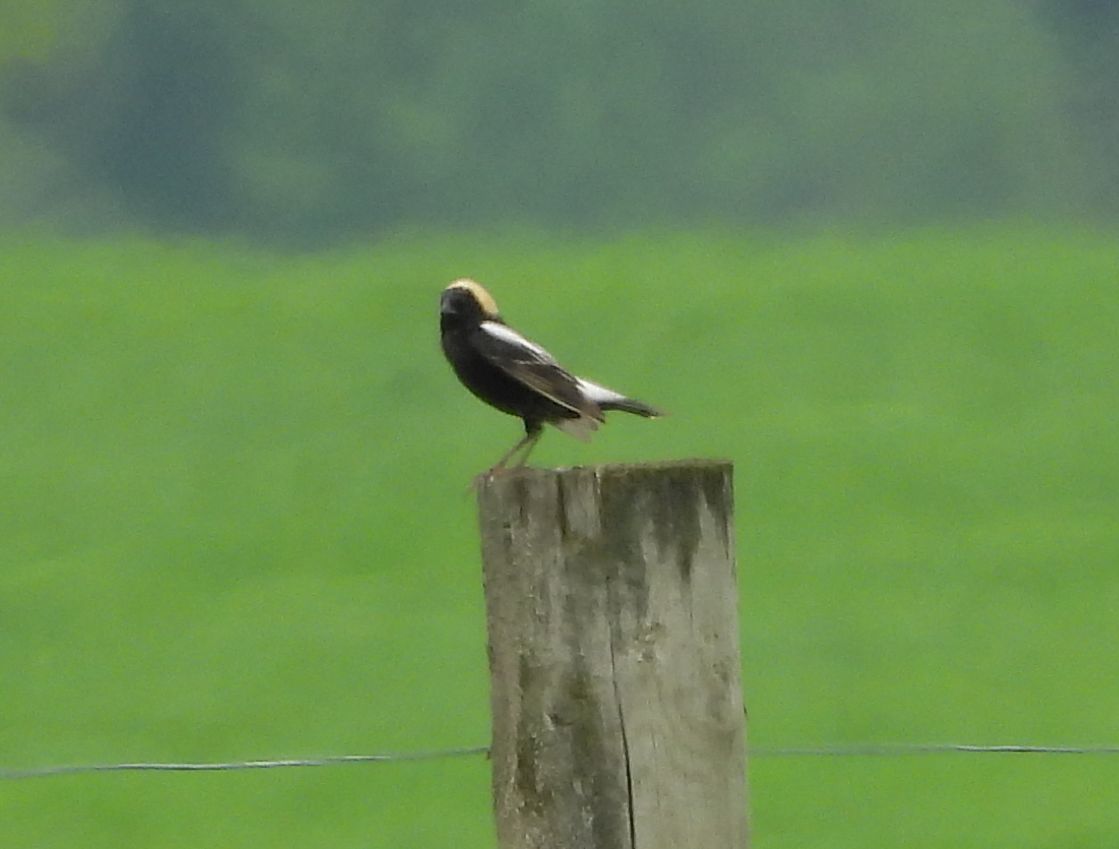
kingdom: Animalia
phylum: Chordata
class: Aves
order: Passeriformes
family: Icteridae
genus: Dolichonyx
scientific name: Dolichonyx oryzivorus
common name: Bobolink
